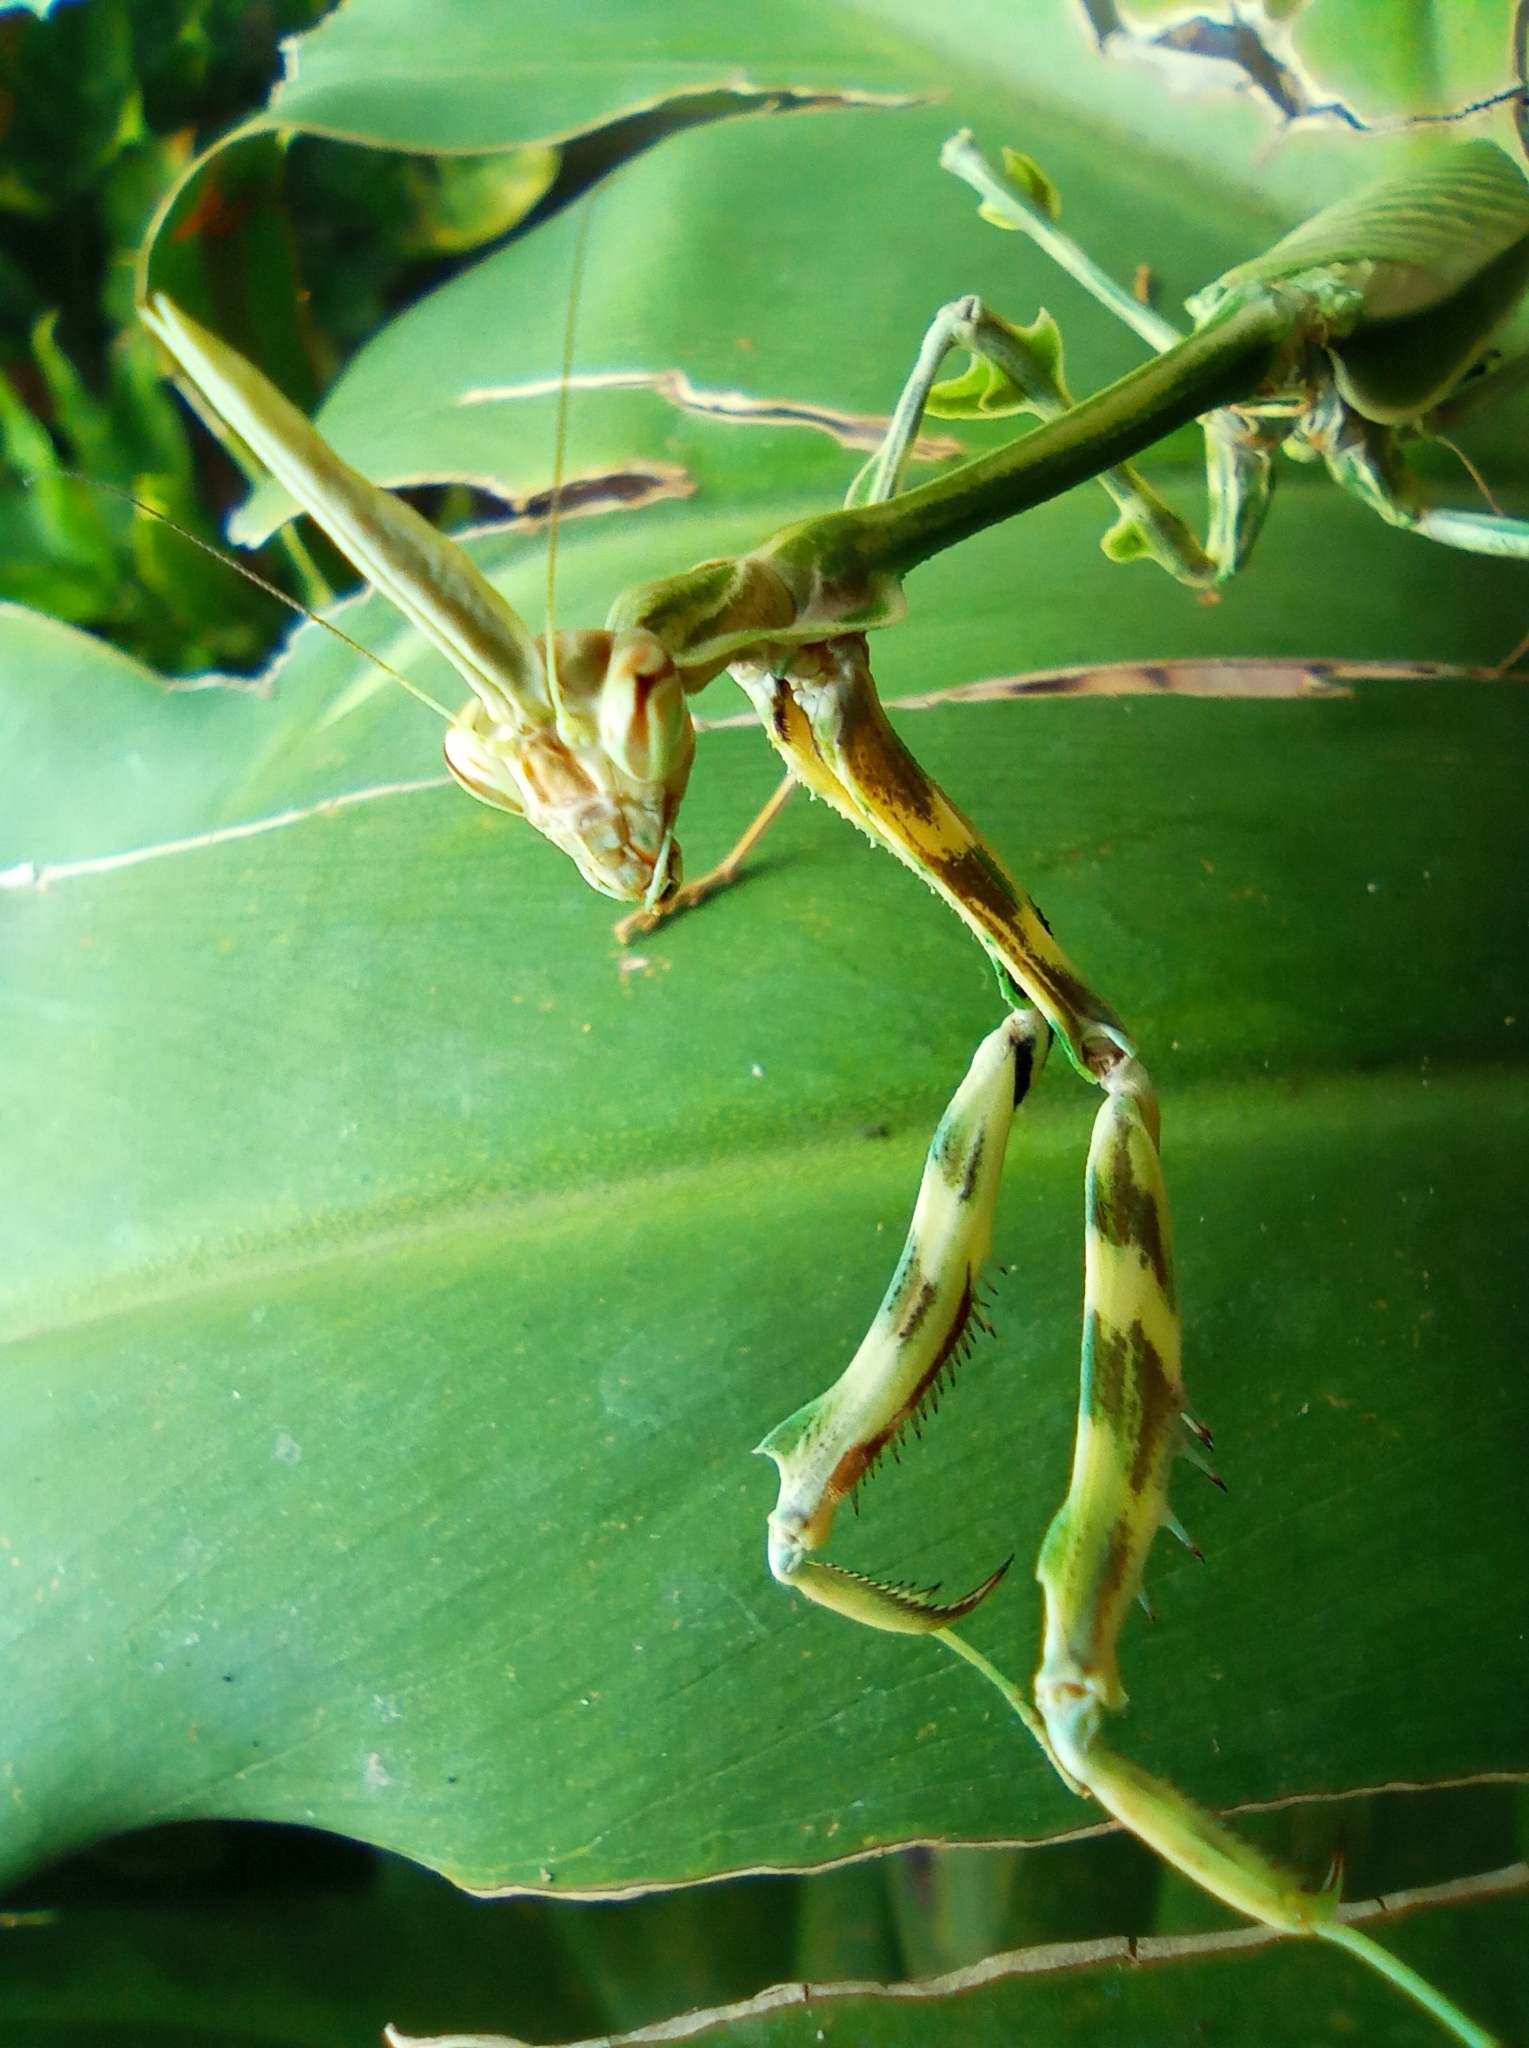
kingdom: Animalia
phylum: Arthropoda
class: Insecta
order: Mantodea
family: Mantidae
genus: Zoolea
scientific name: Zoolea lobipes
